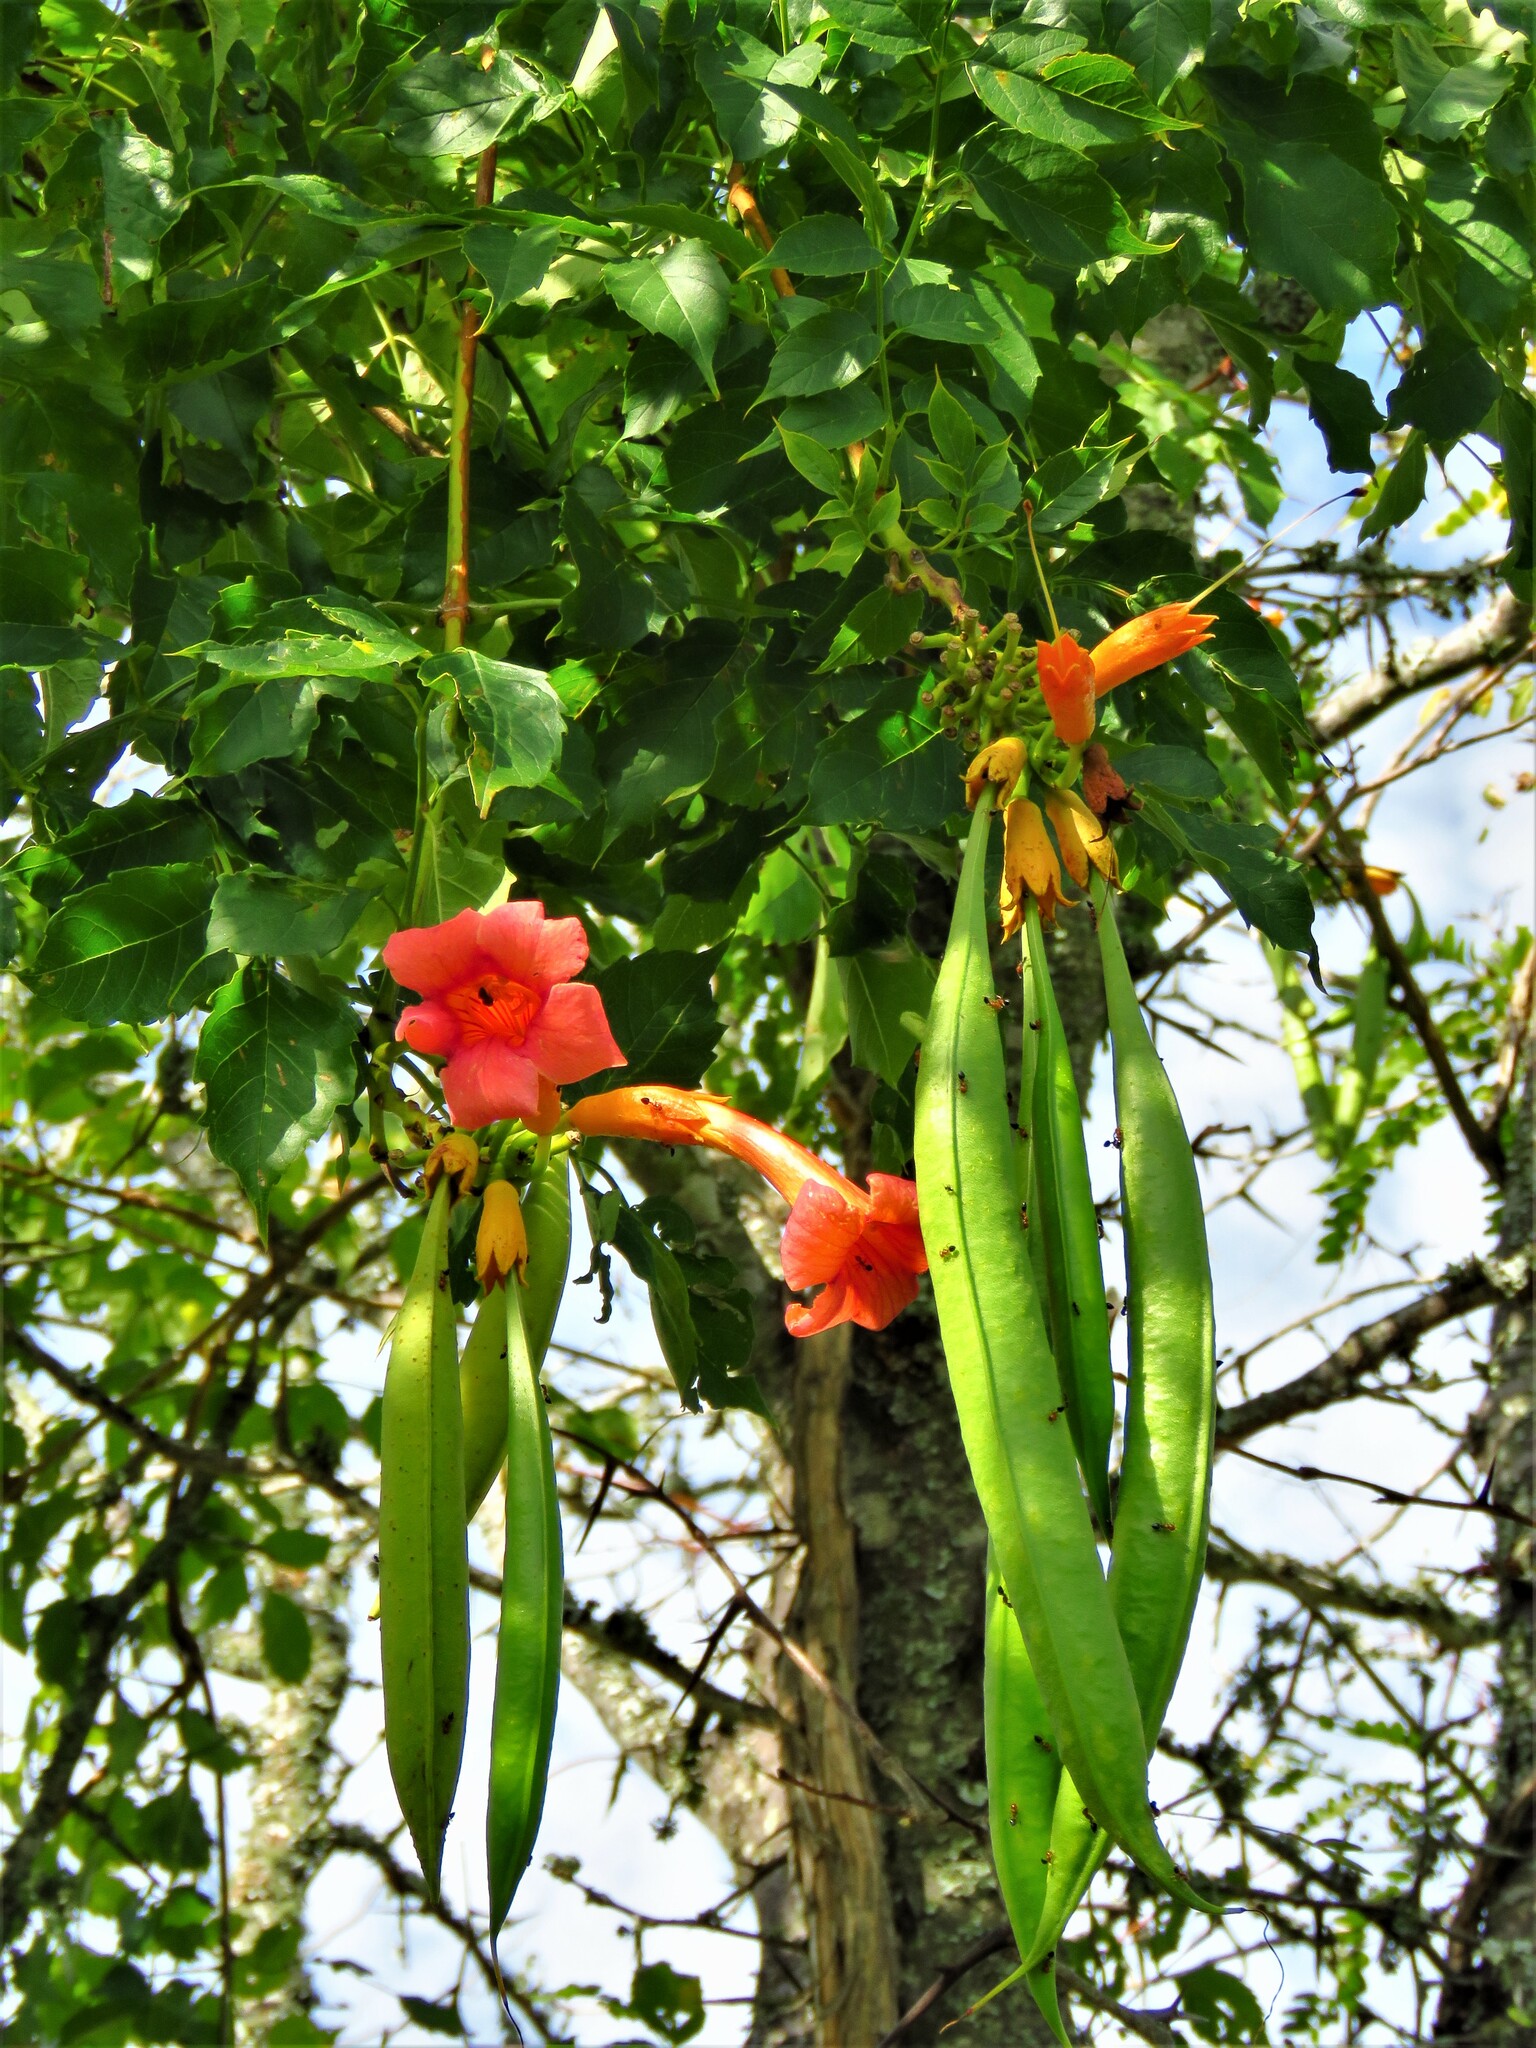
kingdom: Plantae
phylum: Tracheophyta
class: Magnoliopsida
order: Lamiales
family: Bignoniaceae
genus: Campsis
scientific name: Campsis radicans
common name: Trumpet-creeper
